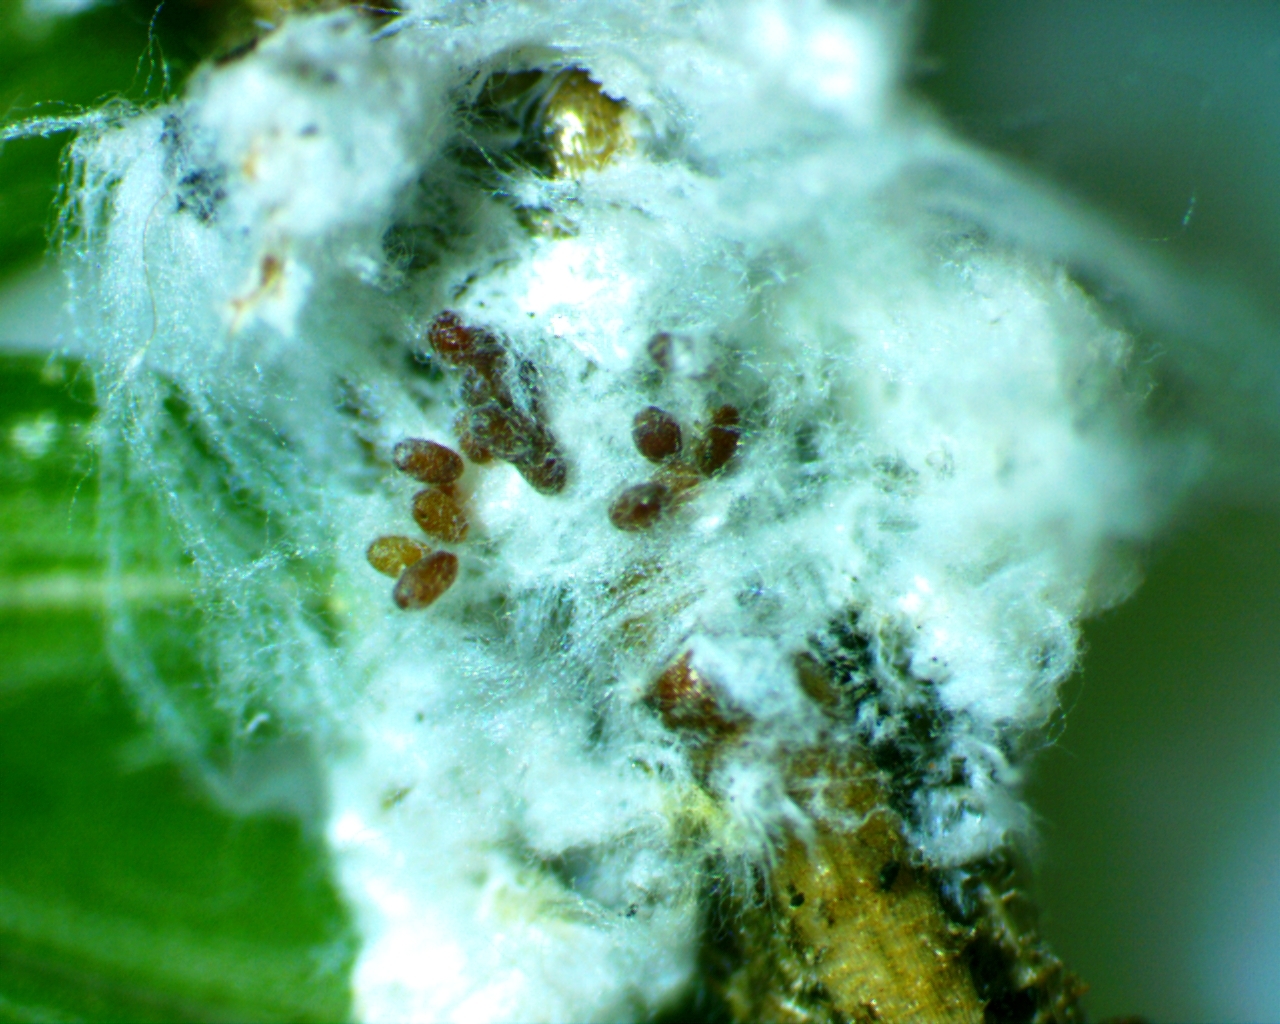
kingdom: Animalia
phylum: Arthropoda
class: Insecta
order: Hemiptera
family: Adelgidae
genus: Adelges
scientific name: Adelges tsugae
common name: Hemlock woolly adelgid
